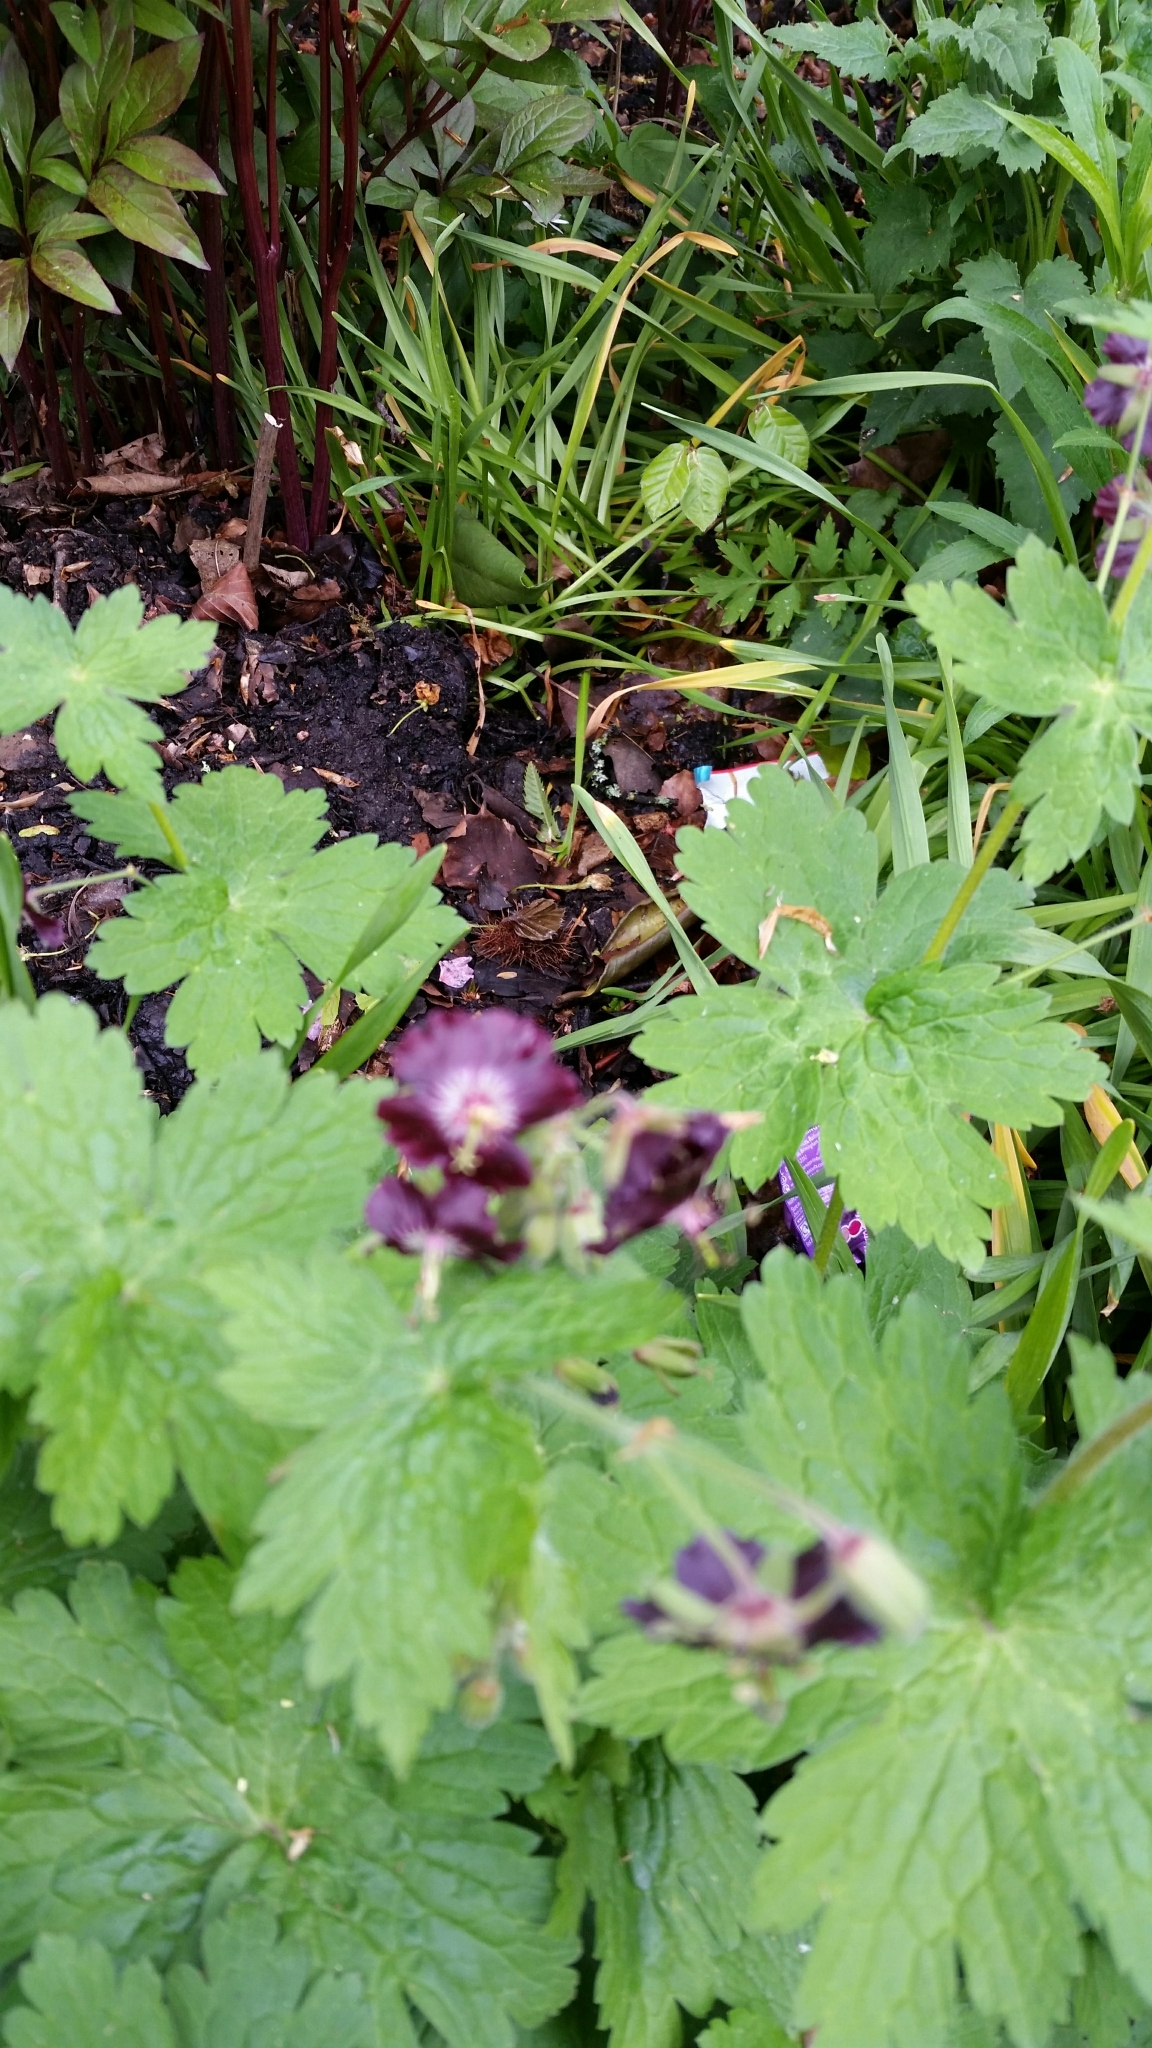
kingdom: Plantae
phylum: Tracheophyta
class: Magnoliopsida
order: Geraniales
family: Geraniaceae
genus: Geranium
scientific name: Geranium phaeum
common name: Dusky crane's-bill
